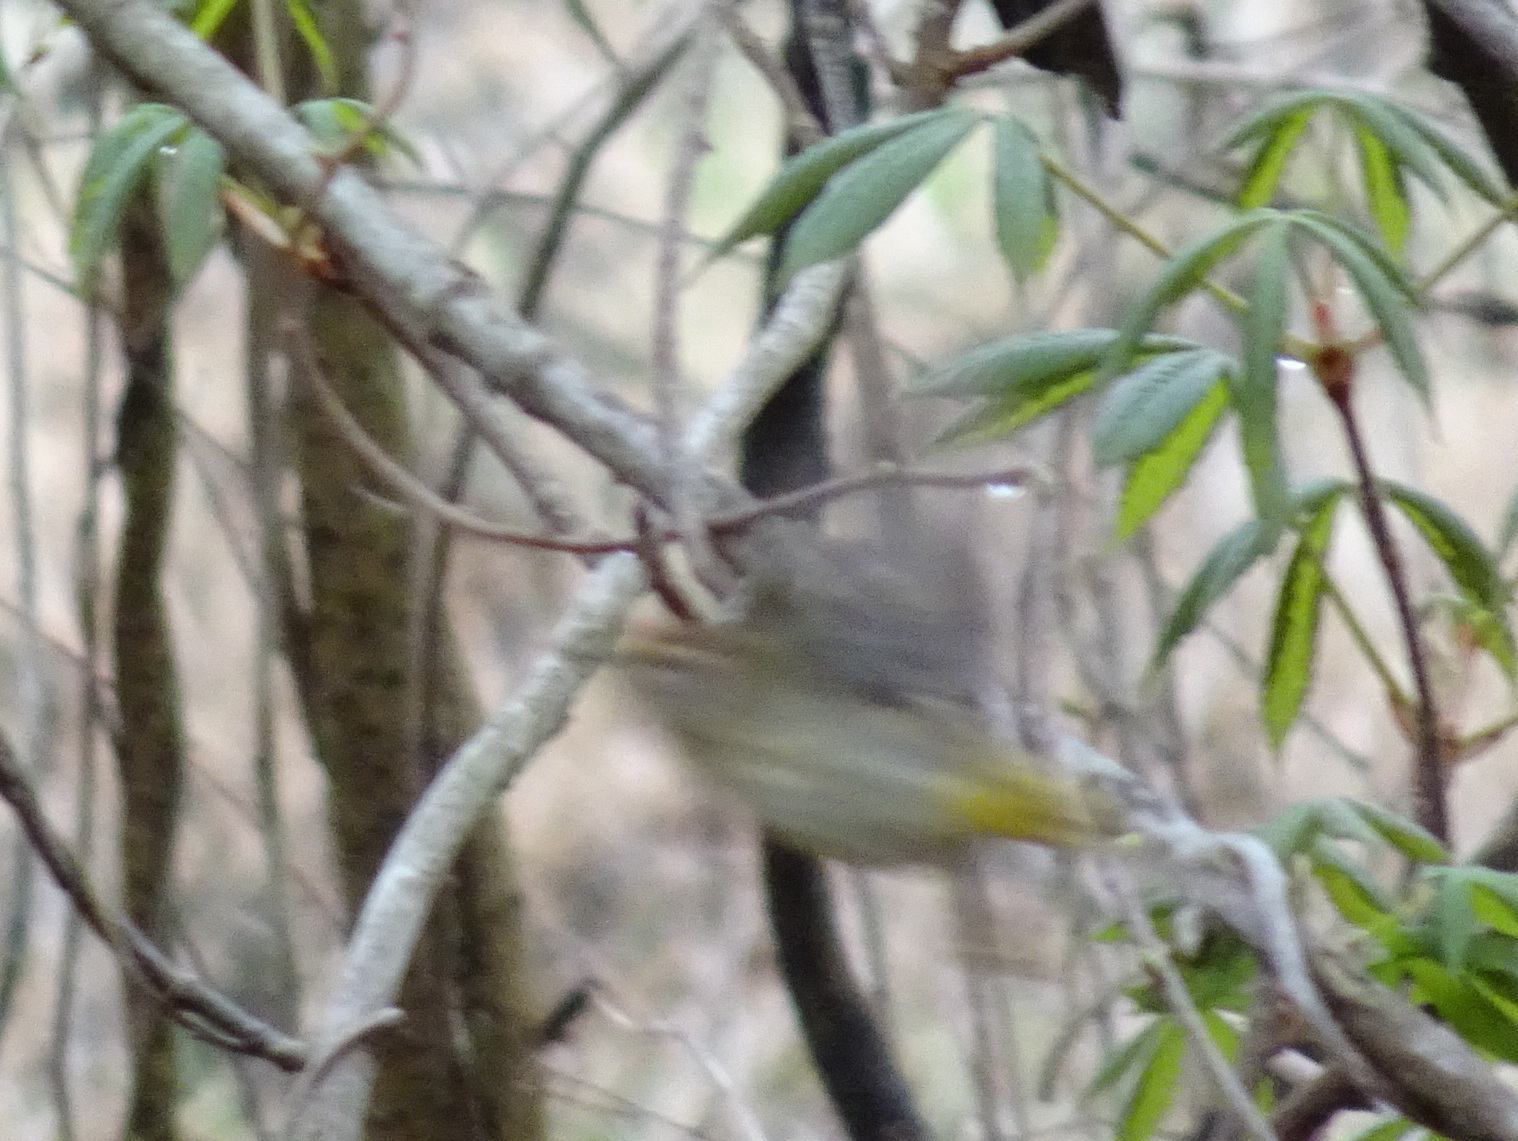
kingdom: Animalia
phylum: Chordata
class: Aves
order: Passeriformes
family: Parulidae
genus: Setophaga
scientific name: Setophaga palmarum
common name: Palm warbler
